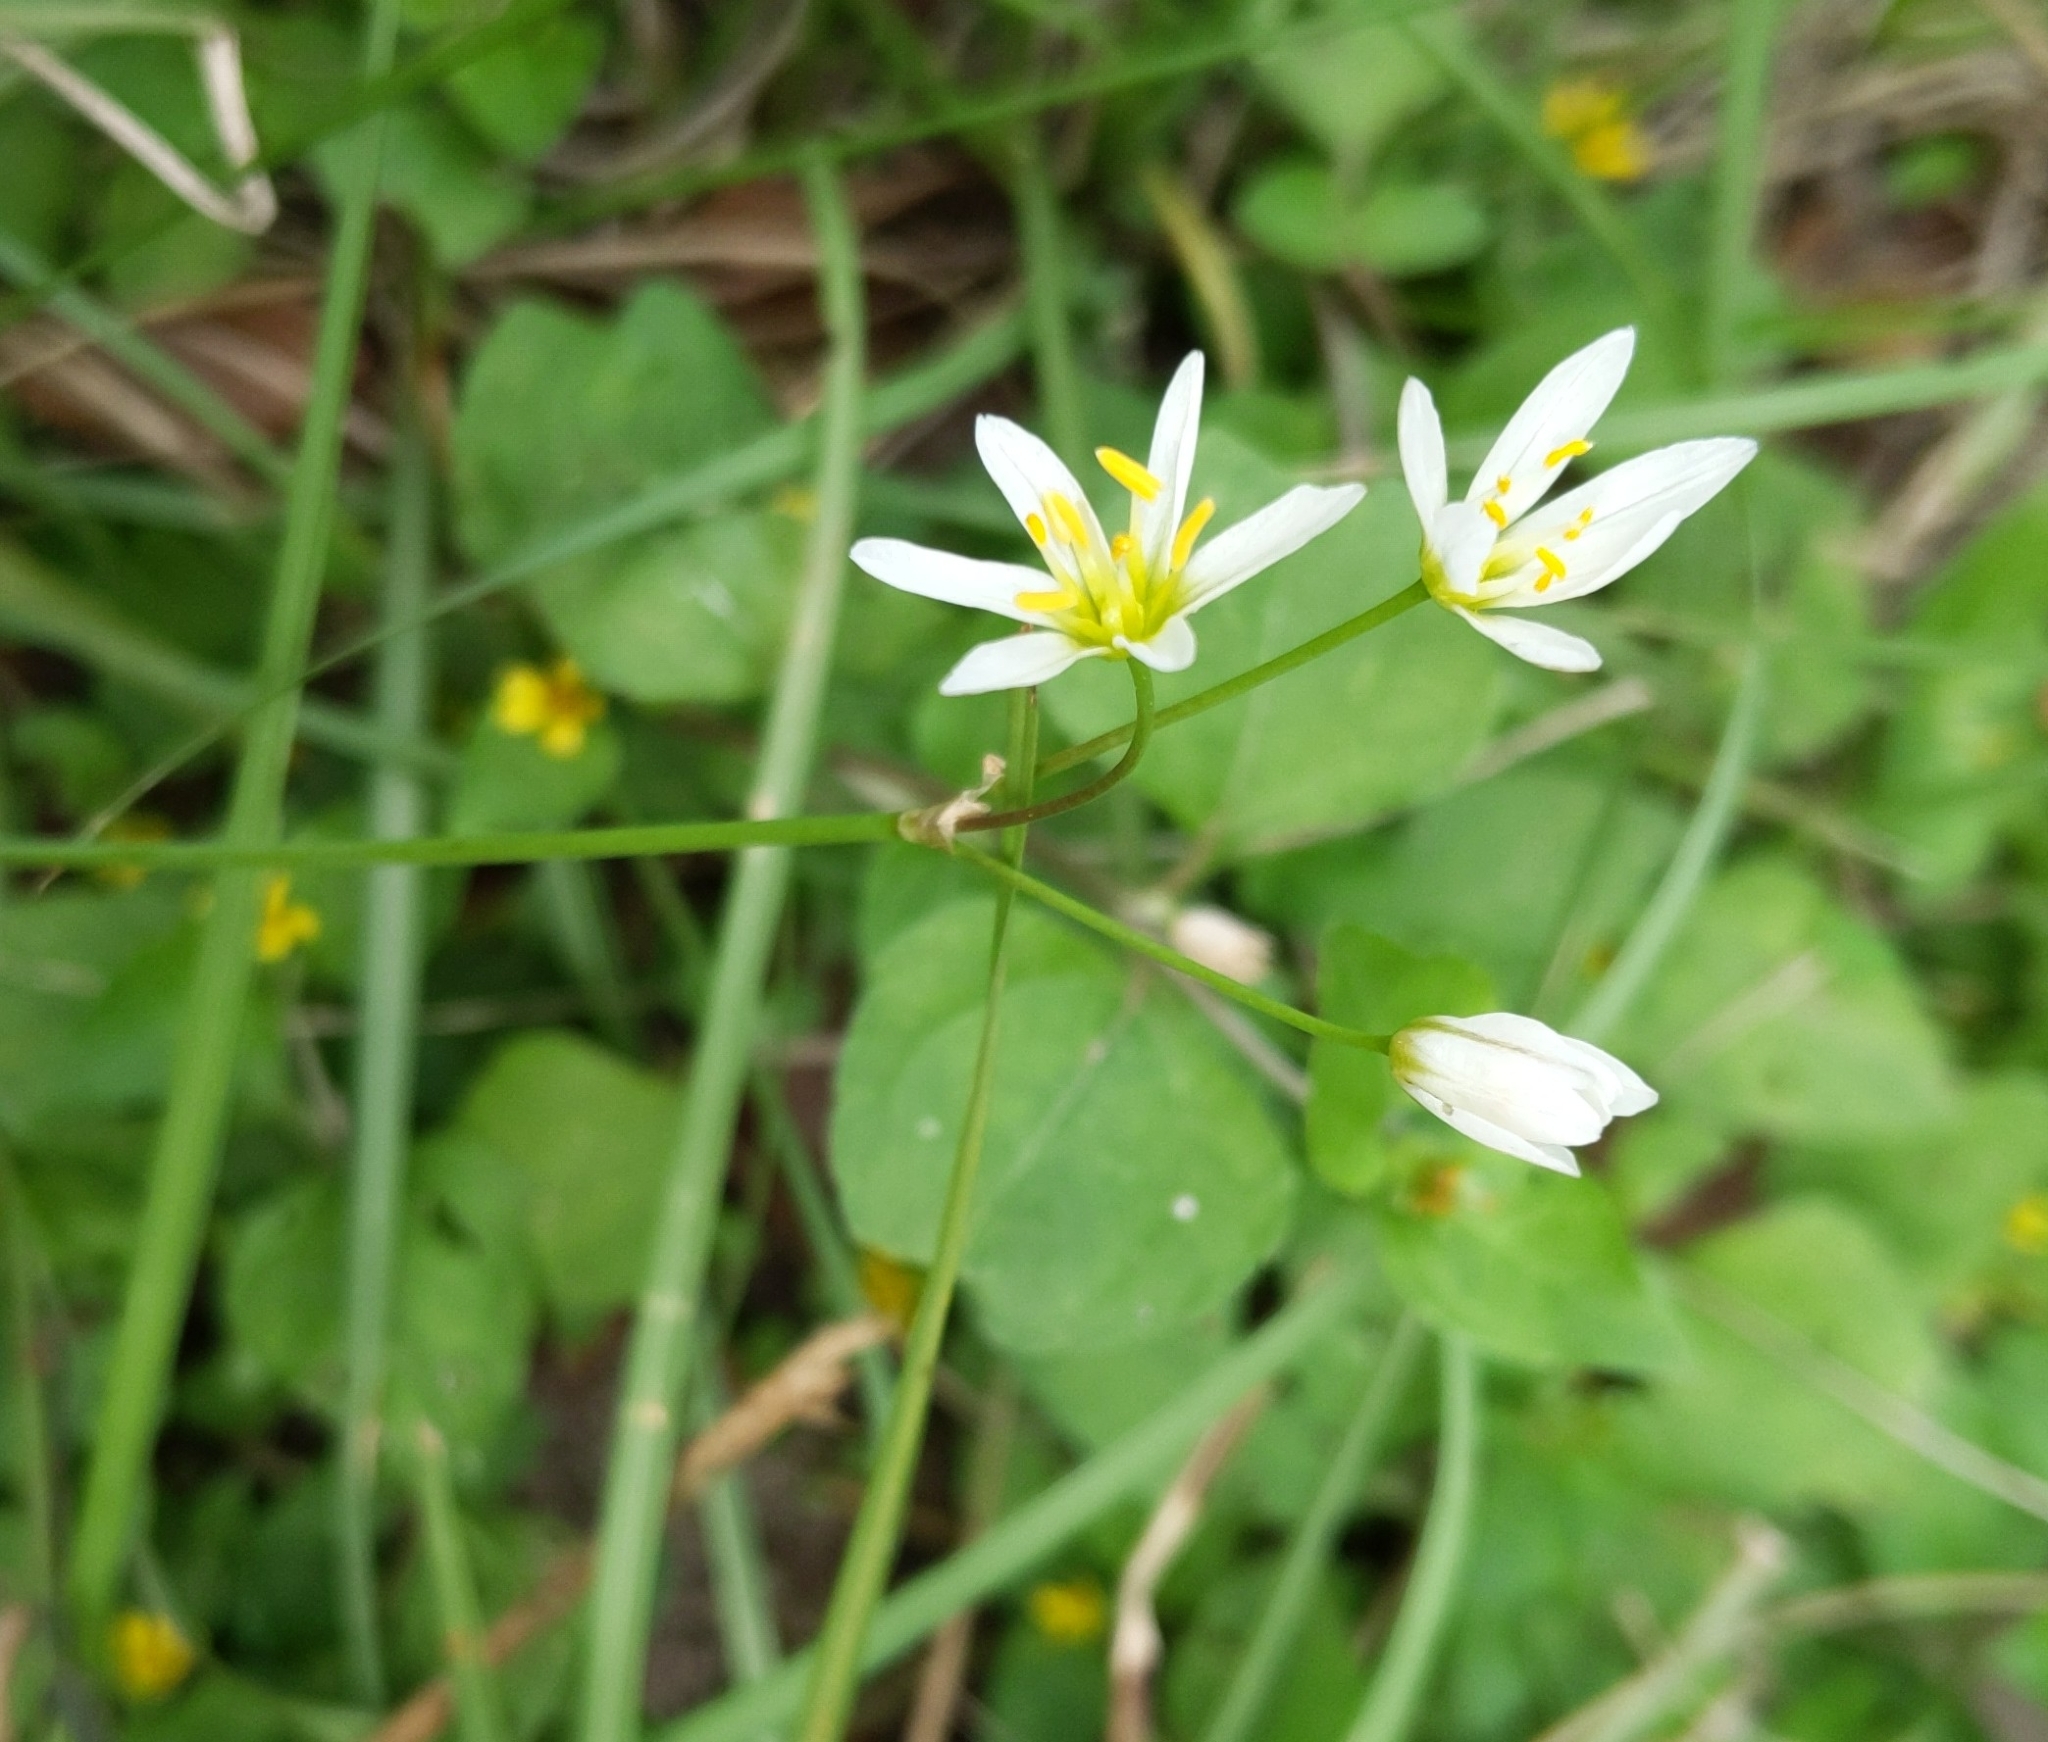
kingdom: Plantae
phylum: Tracheophyta
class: Liliopsida
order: Asparagales
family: Amaryllidaceae
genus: Nothoscordum
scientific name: Nothoscordum bivalve
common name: Crow-poison
